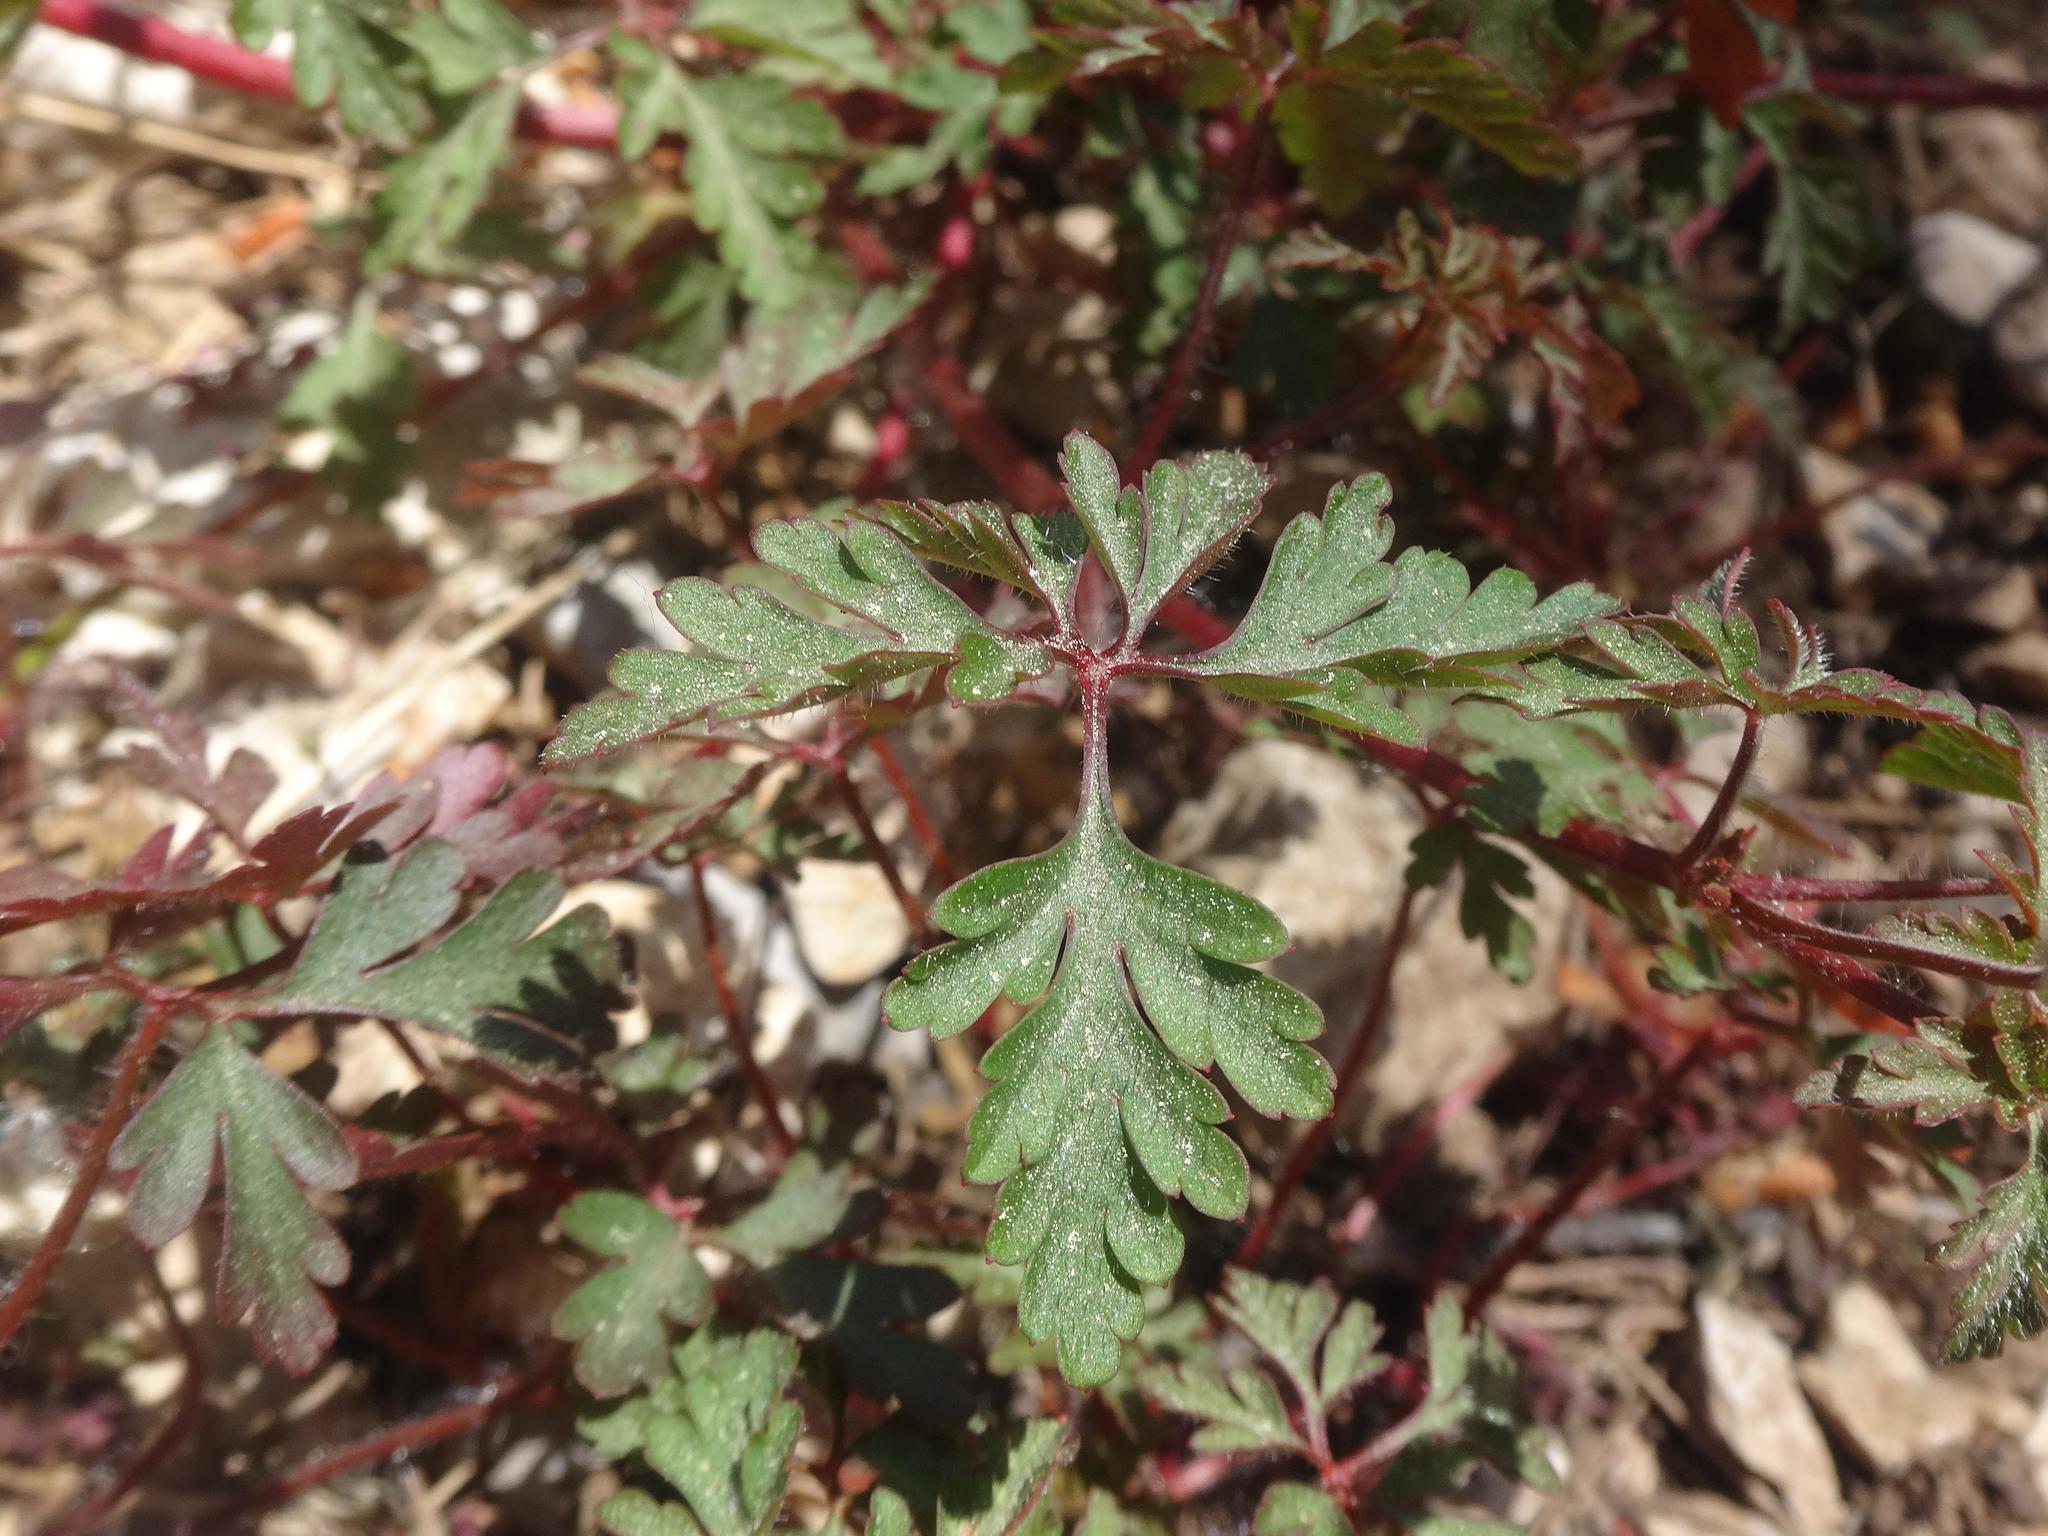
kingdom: Plantae
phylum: Tracheophyta
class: Magnoliopsida
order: Geraniales
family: Geraniaceae
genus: Geranium
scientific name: Geranium purpureum
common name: Little-robin
